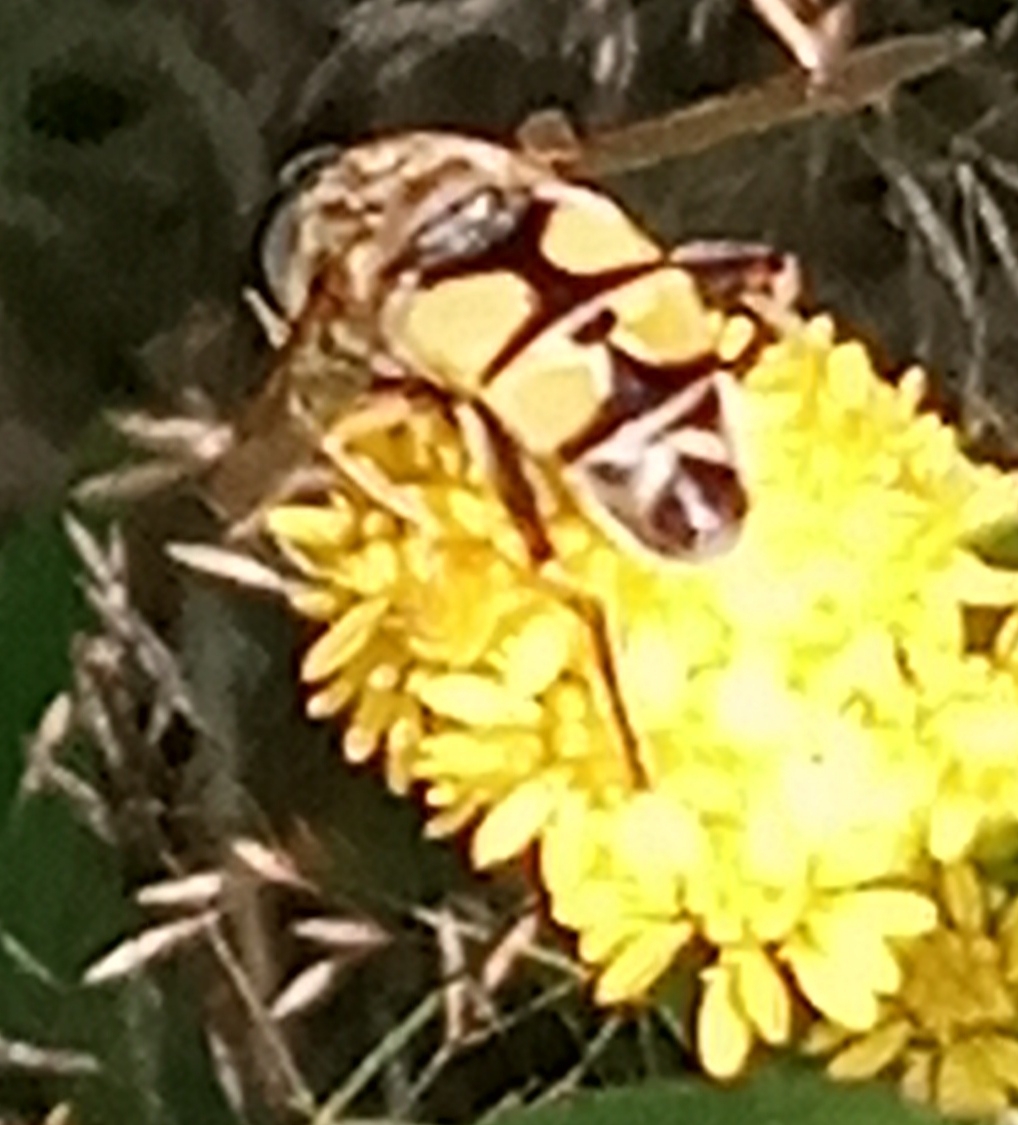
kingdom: Animalia
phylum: Arthropoda
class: Insecta
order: Diptera
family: Syrphidae
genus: Helophilus
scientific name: Helophilus trivittatus
